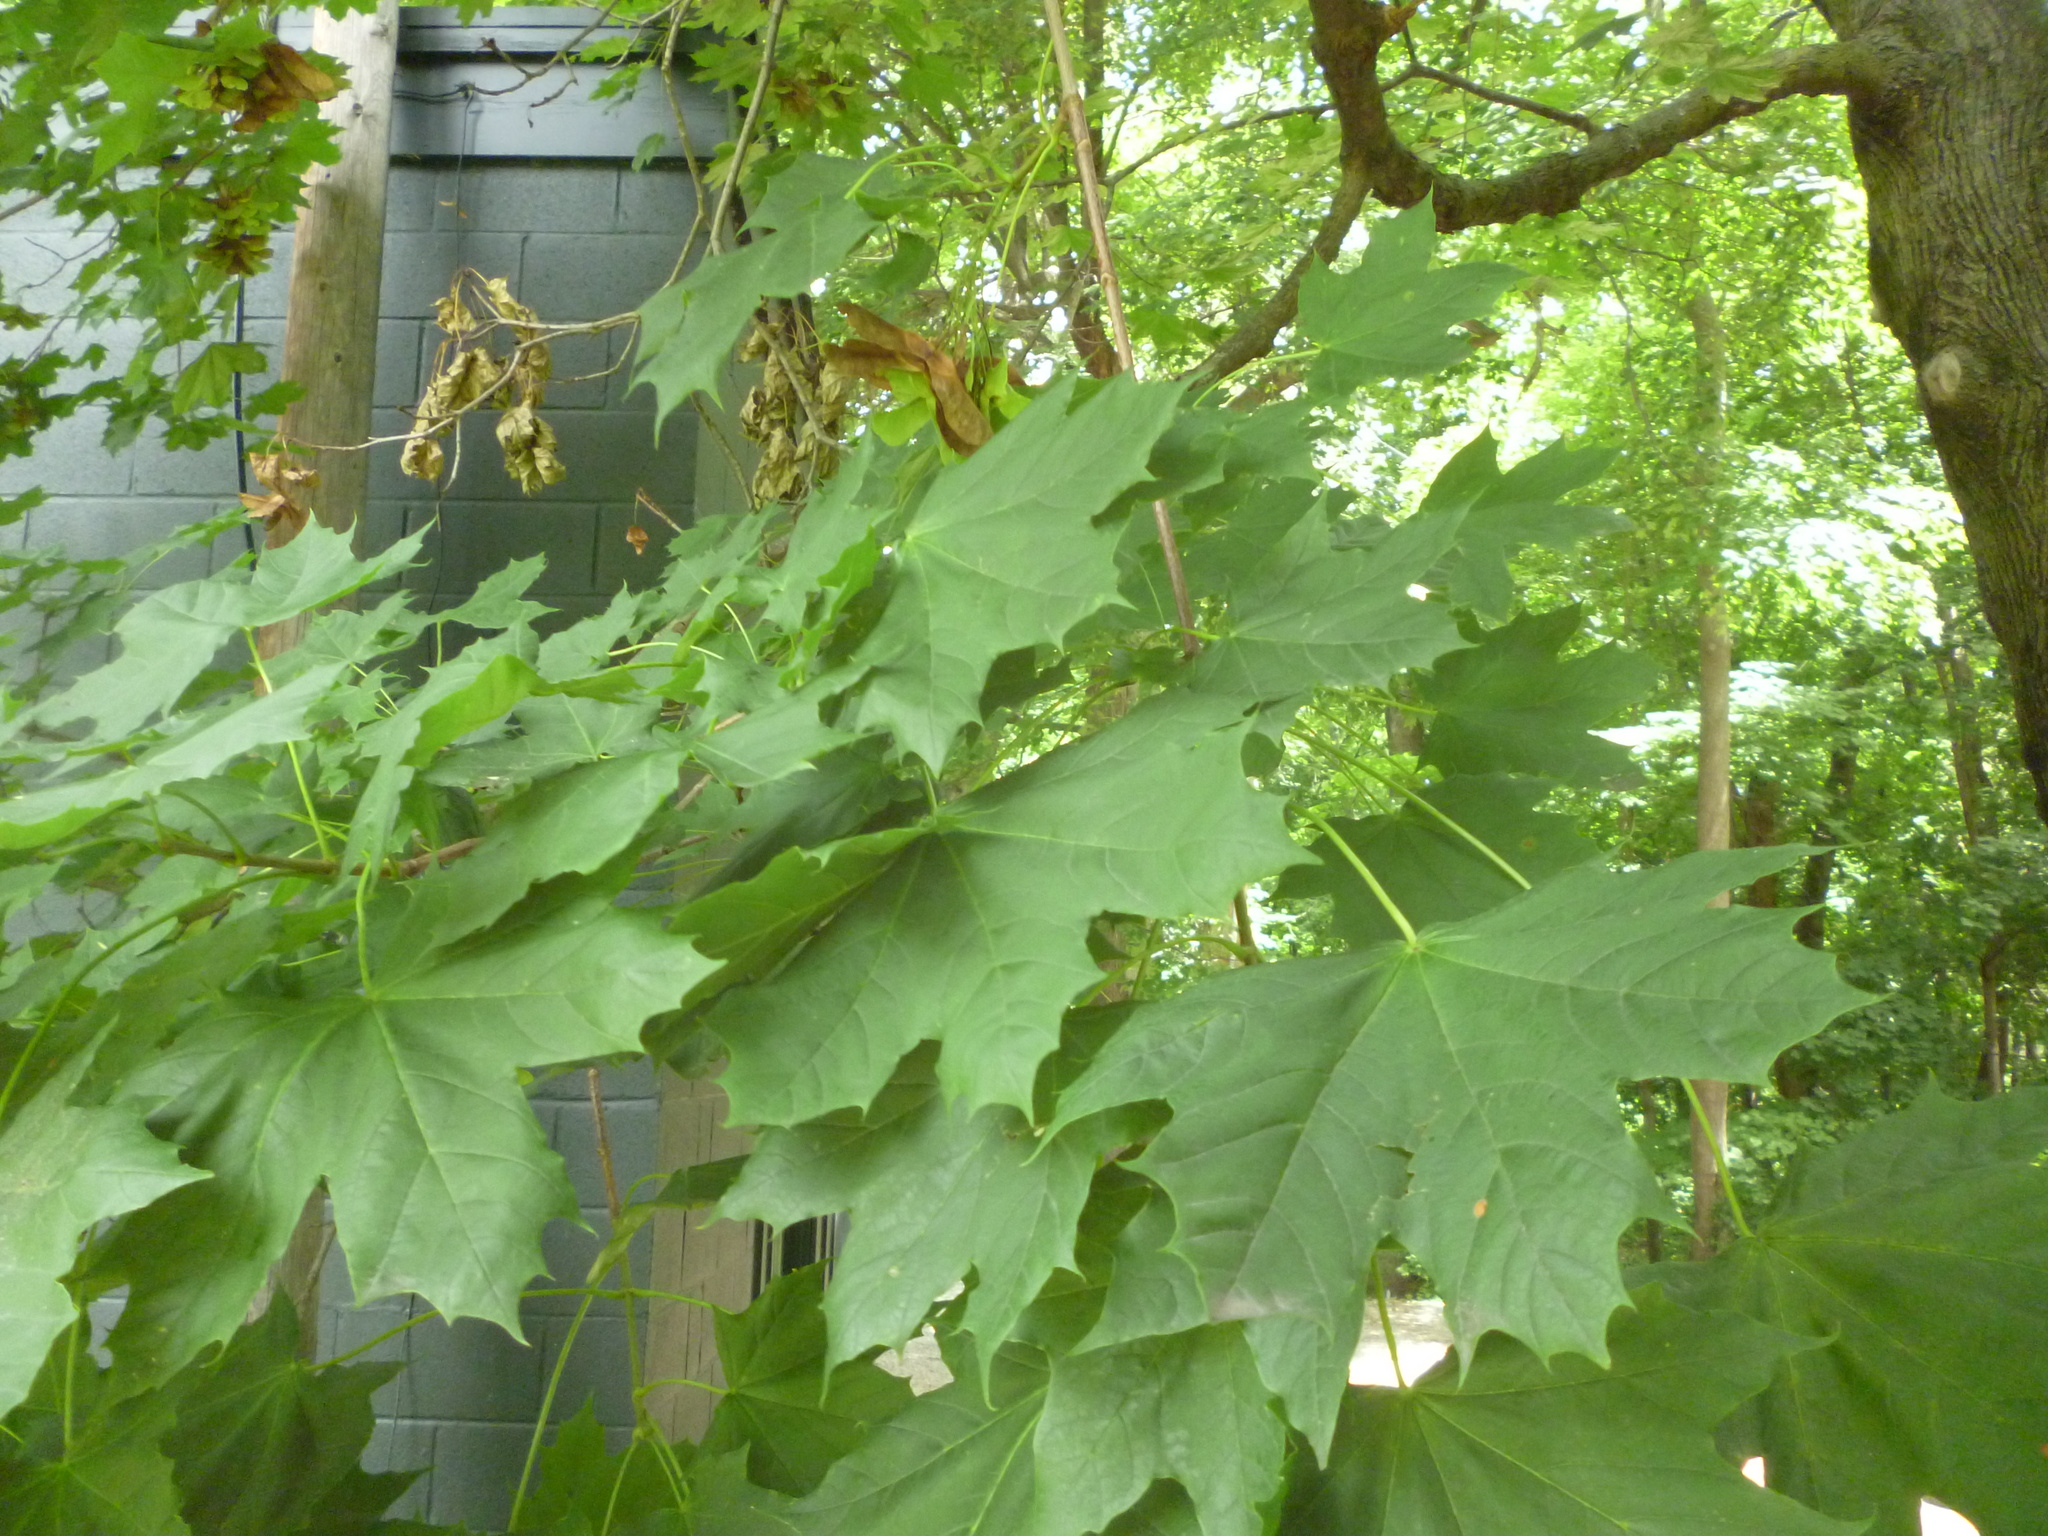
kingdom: Plantae
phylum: Tracheophyta
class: Magnoliopsida
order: Sapindales
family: Sapindaceae
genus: Acer
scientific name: Acer platanoides
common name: Norway maple
